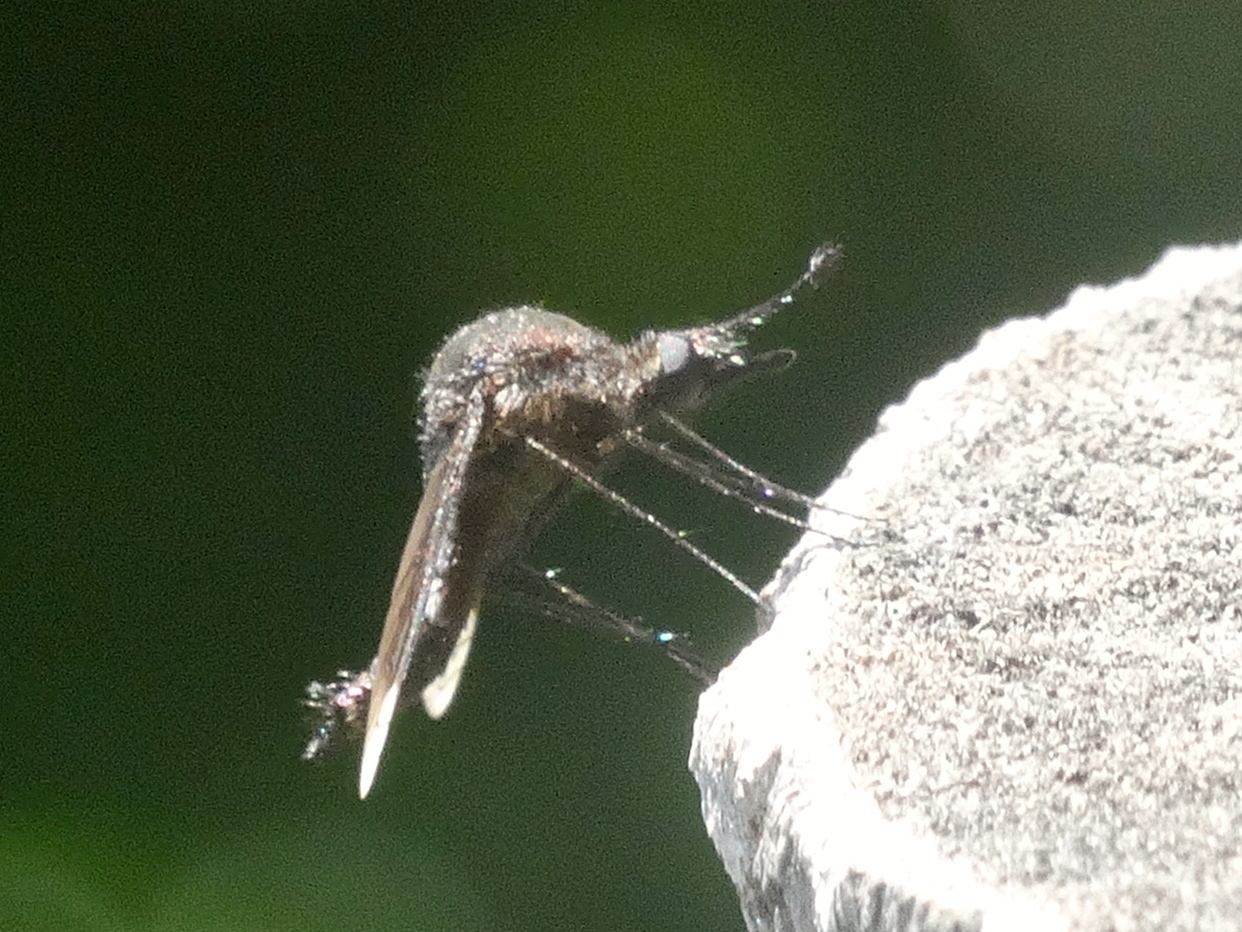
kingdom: Animalia
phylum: Arthropoda
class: Insecta
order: Diptera
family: Bombyliidae
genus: Lepidophora
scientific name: Lepidophora vetusta
